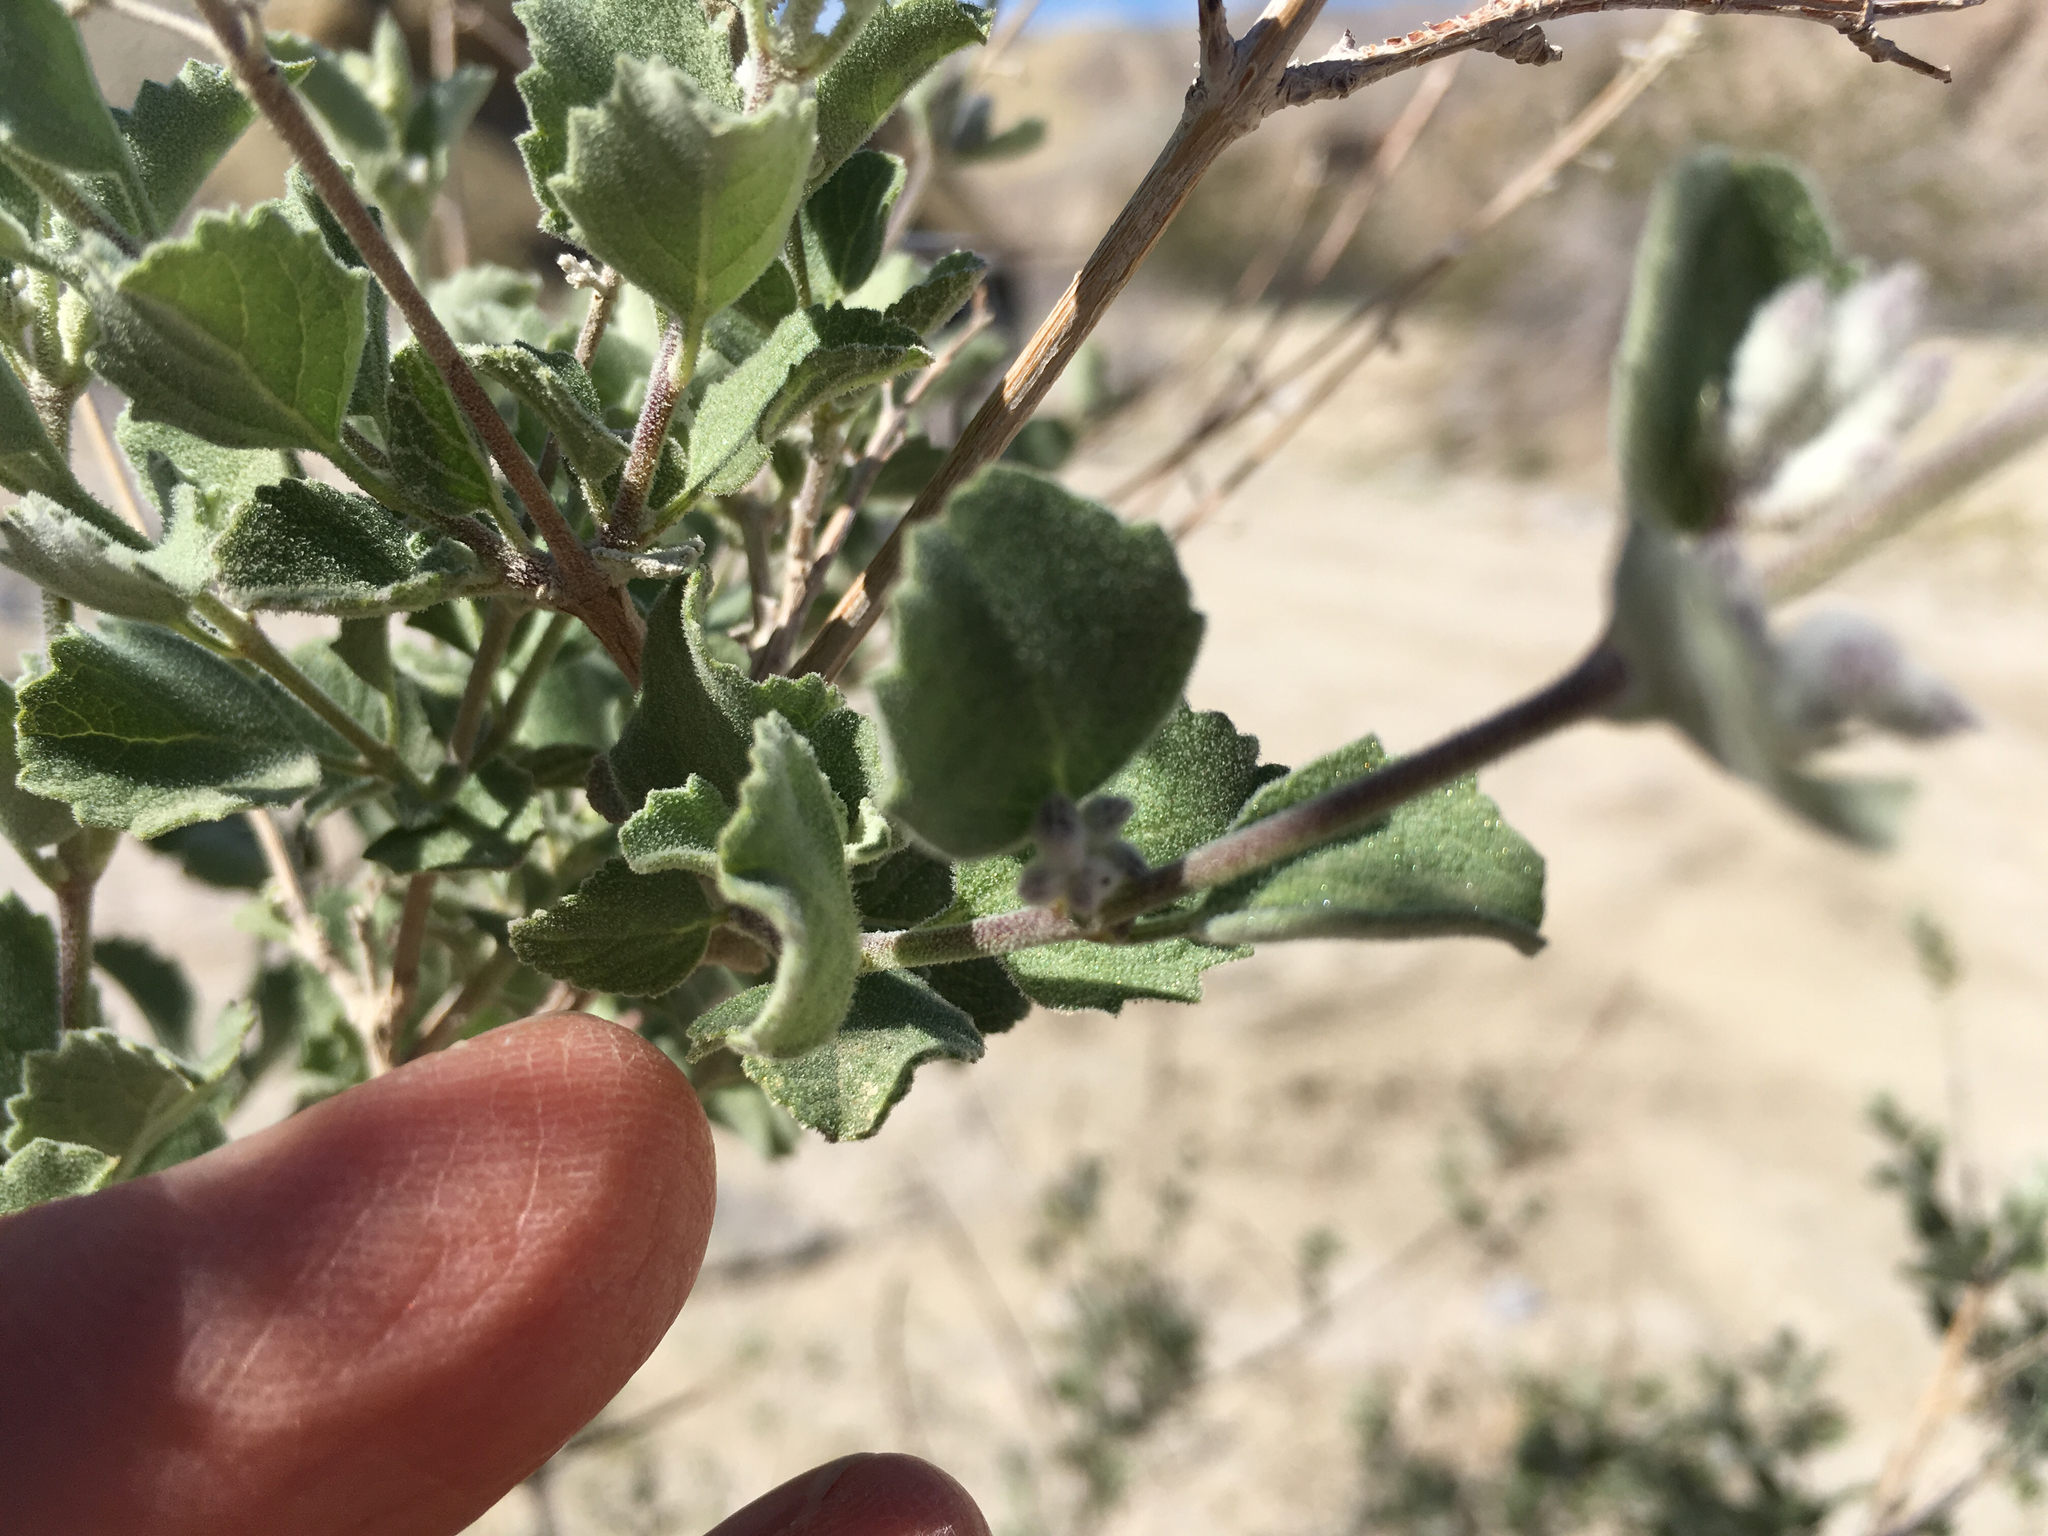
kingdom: Plantae
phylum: Tracheophyta
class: Magnoliopsida
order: Lamiales
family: Lamiaceae
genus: Condea
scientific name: Condea emoryi
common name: Chia
